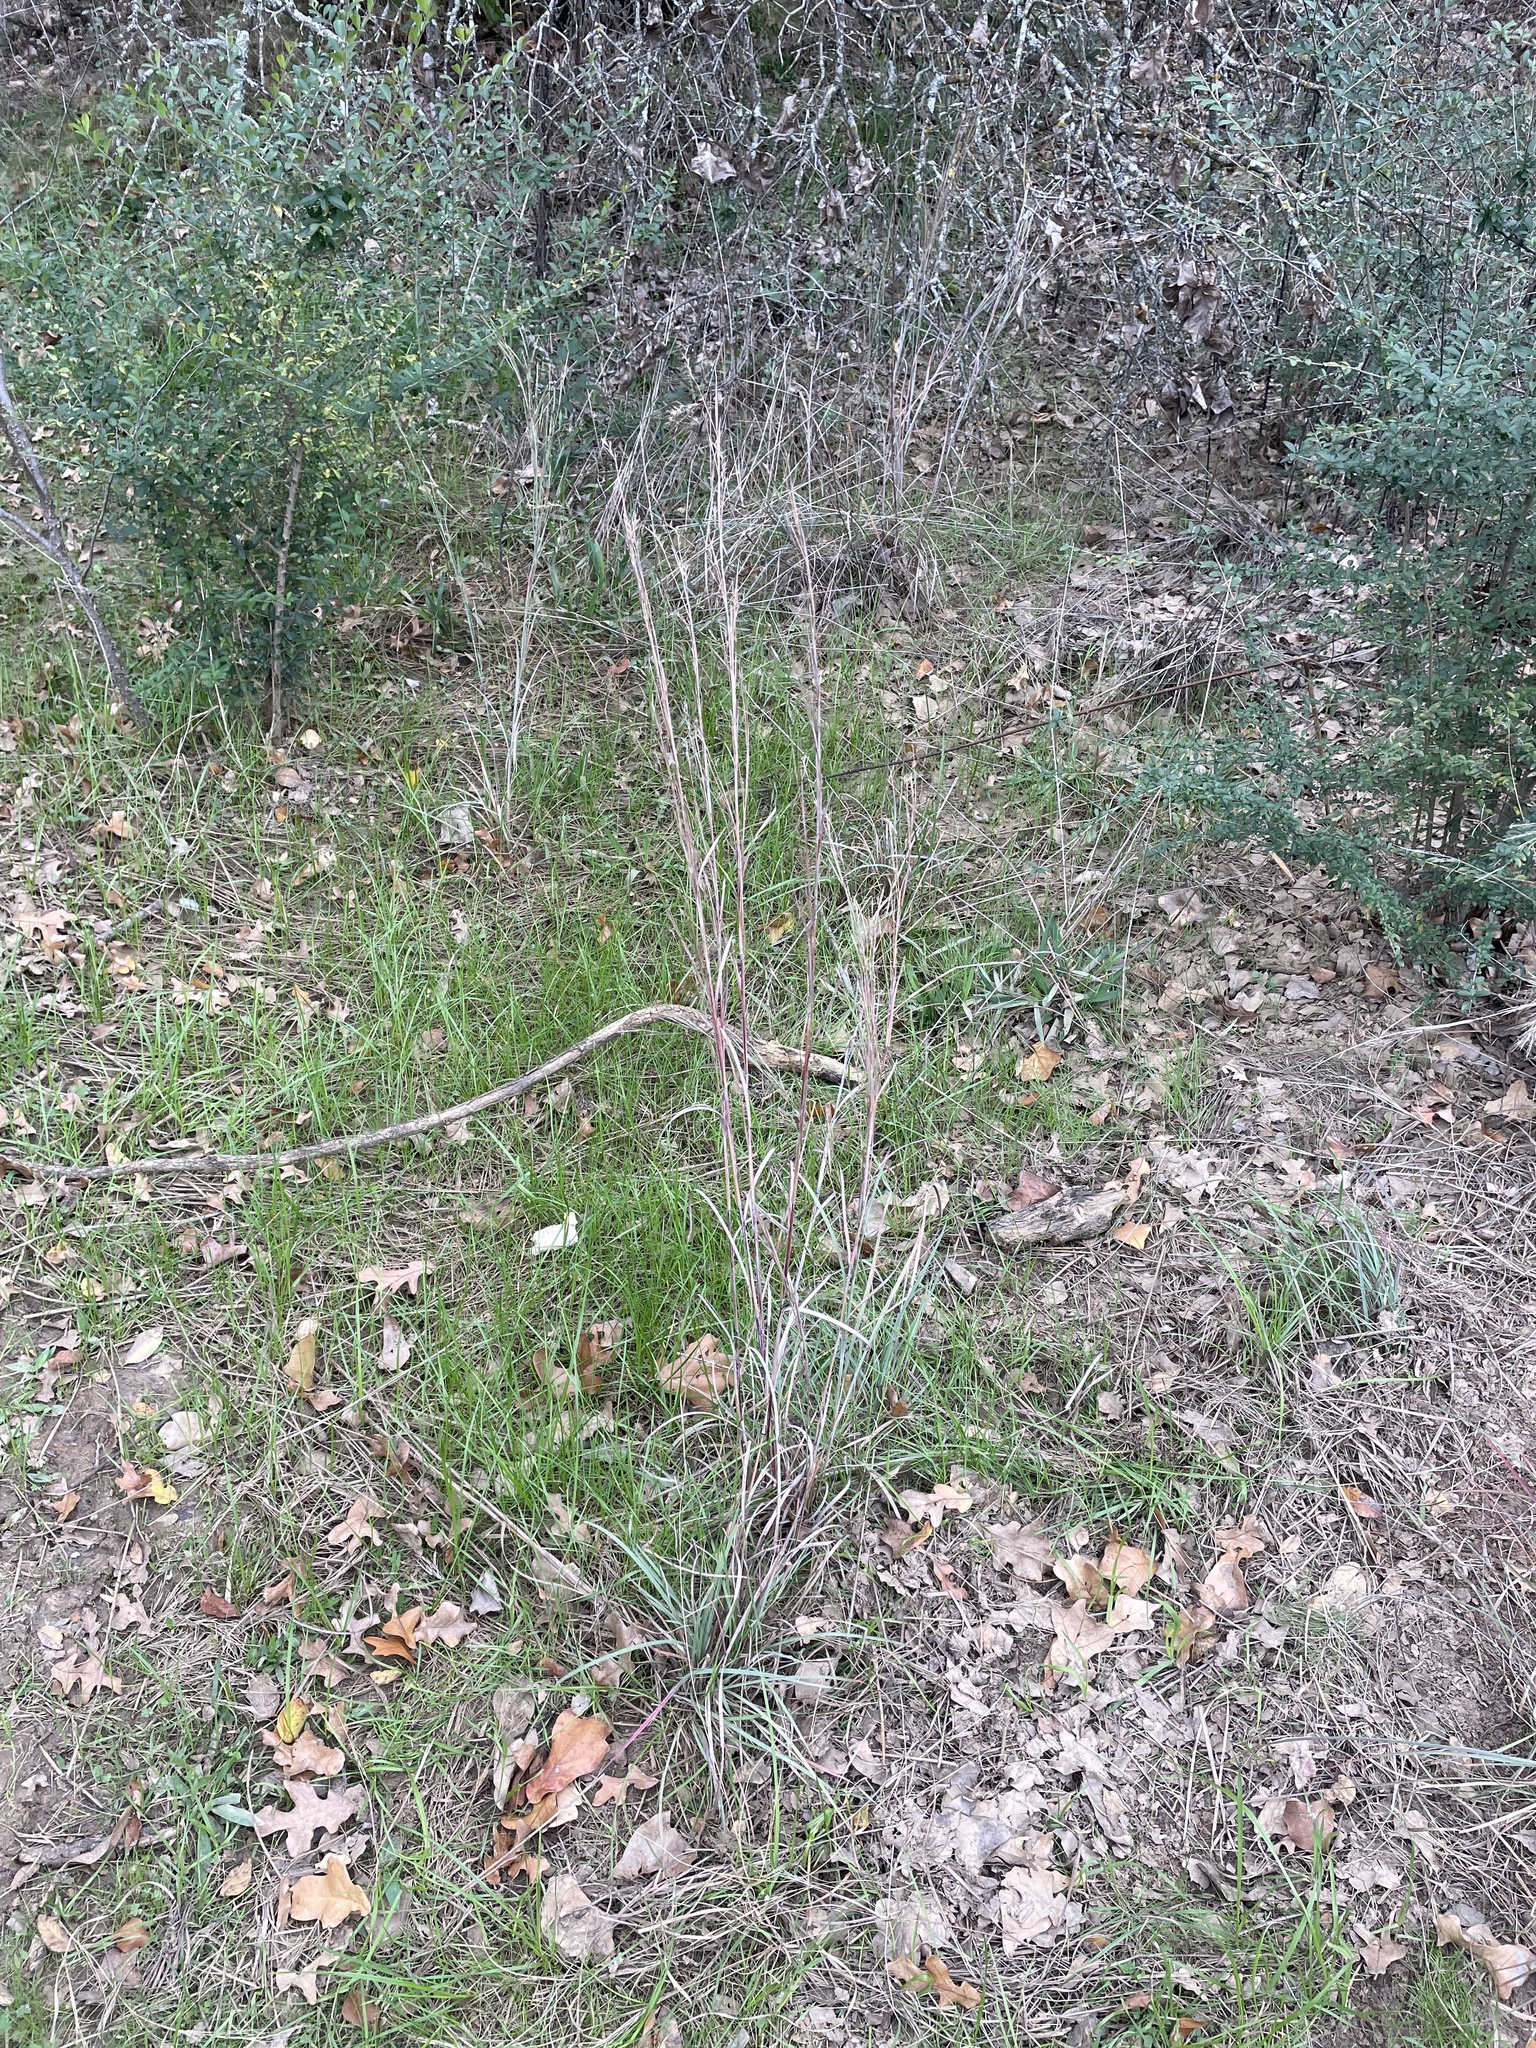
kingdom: Plantae
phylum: Tracheophyta
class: Liliopsida
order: Poales
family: Poaceae
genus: Schizachyrium
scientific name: Schizachyrium scoparium
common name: Little bluestem
